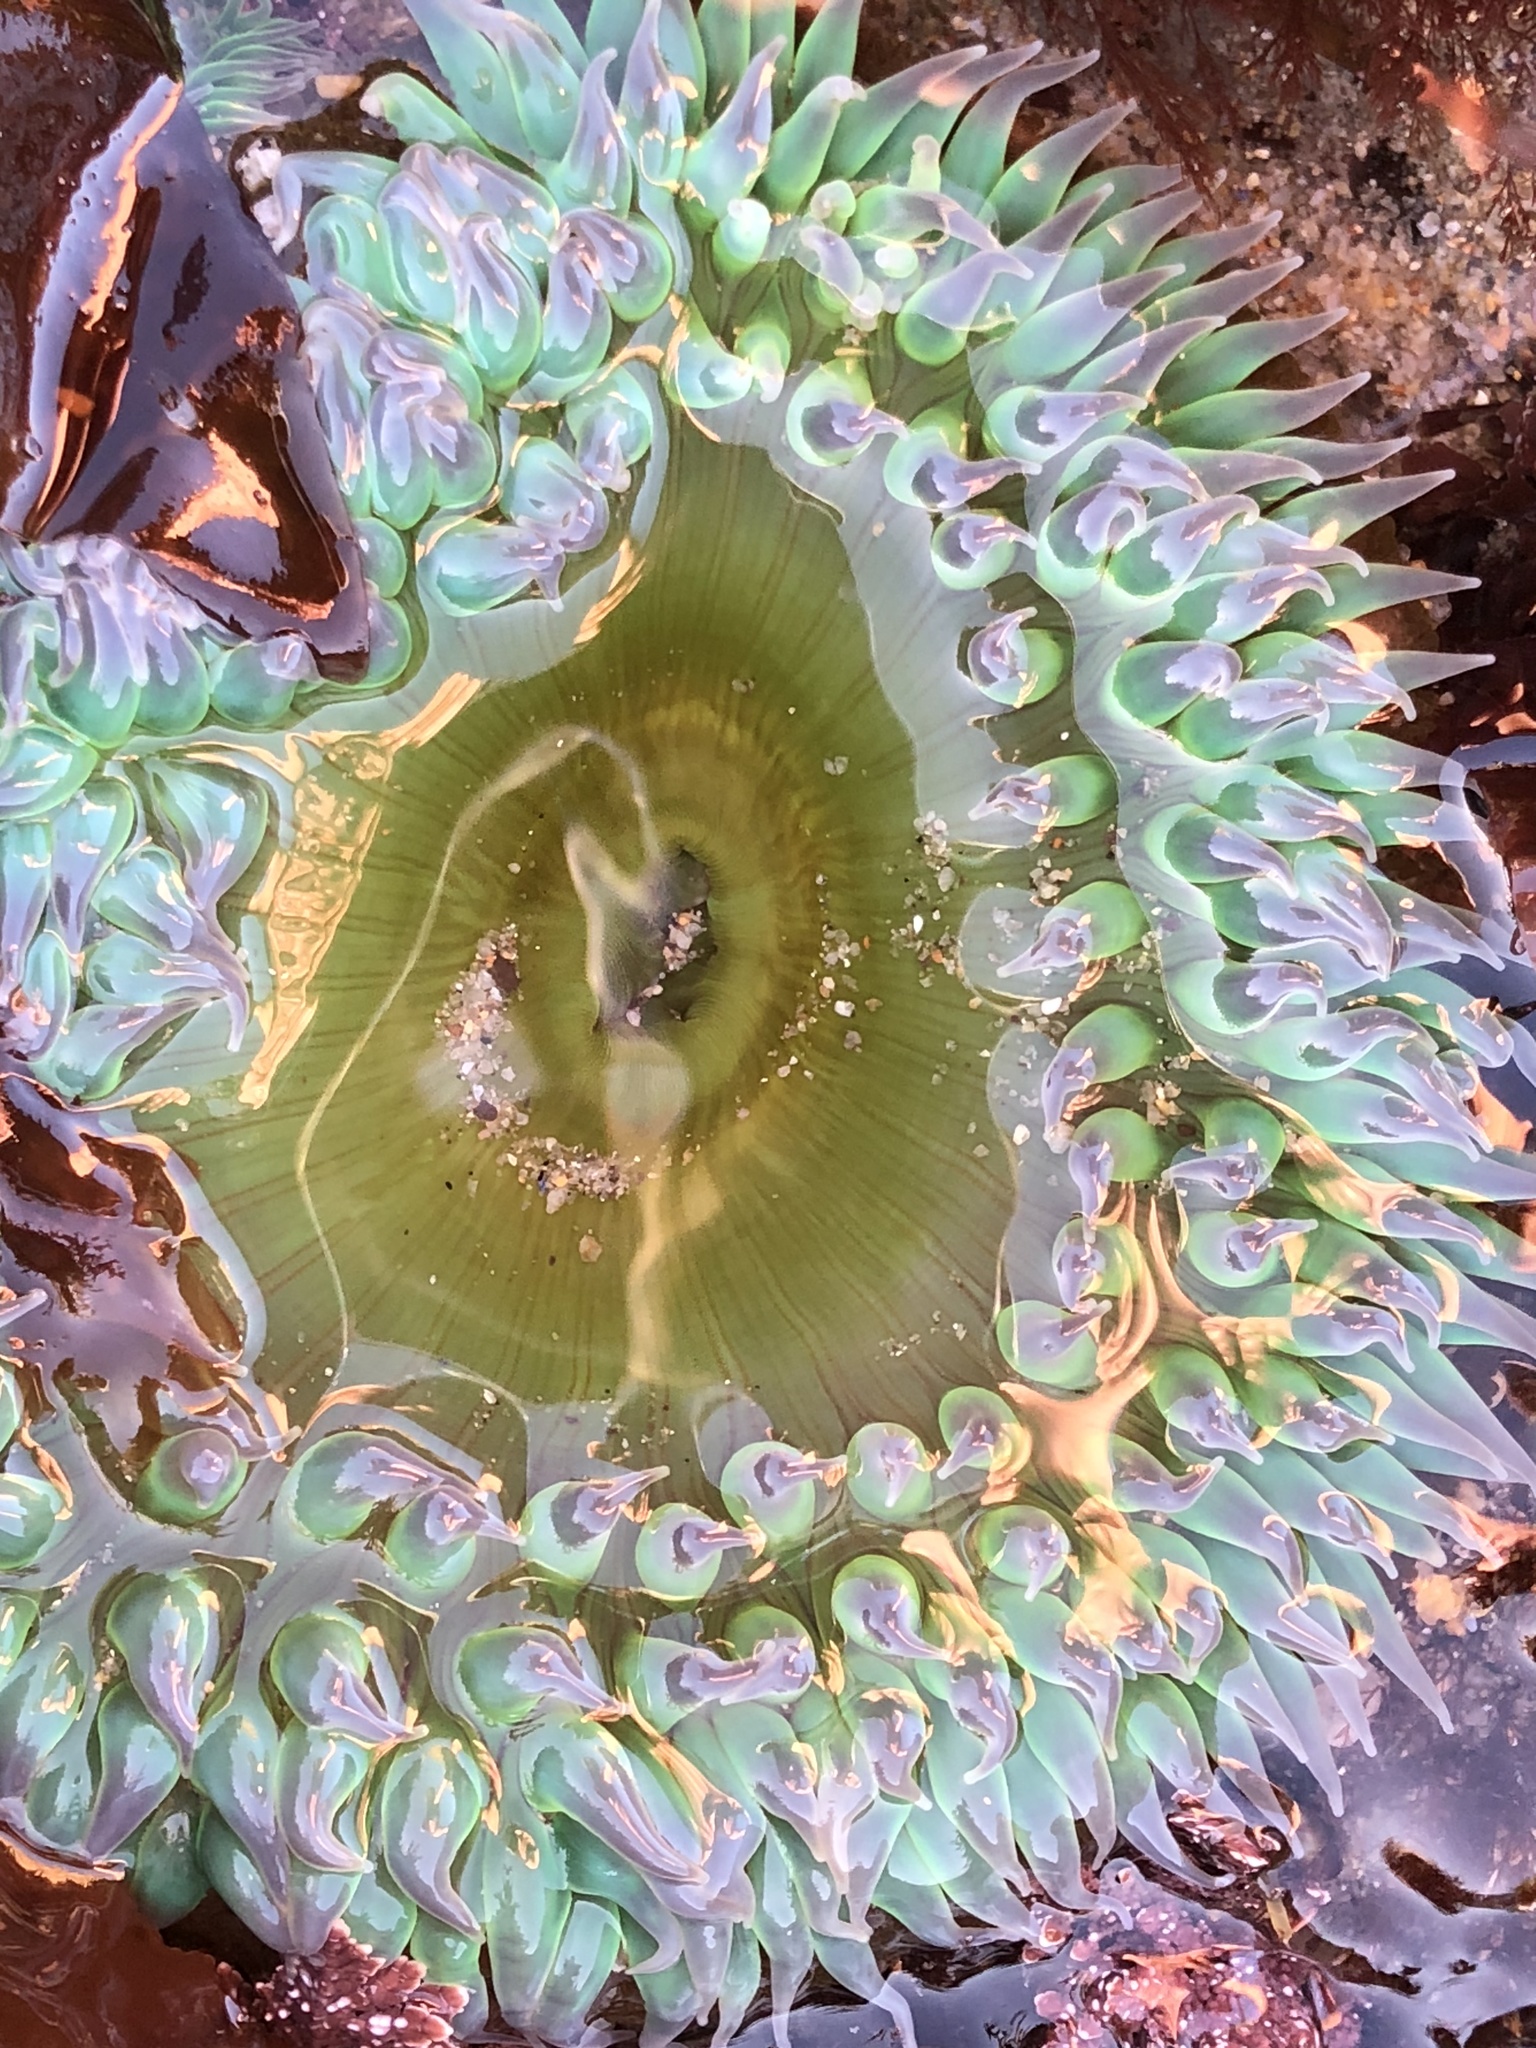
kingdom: Animalia
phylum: Cnidaria
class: Anthozoa
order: Actiniaria
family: Actiniidae
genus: Anthopleura
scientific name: Anthopleura xanthogrammica
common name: Giant green anemone
